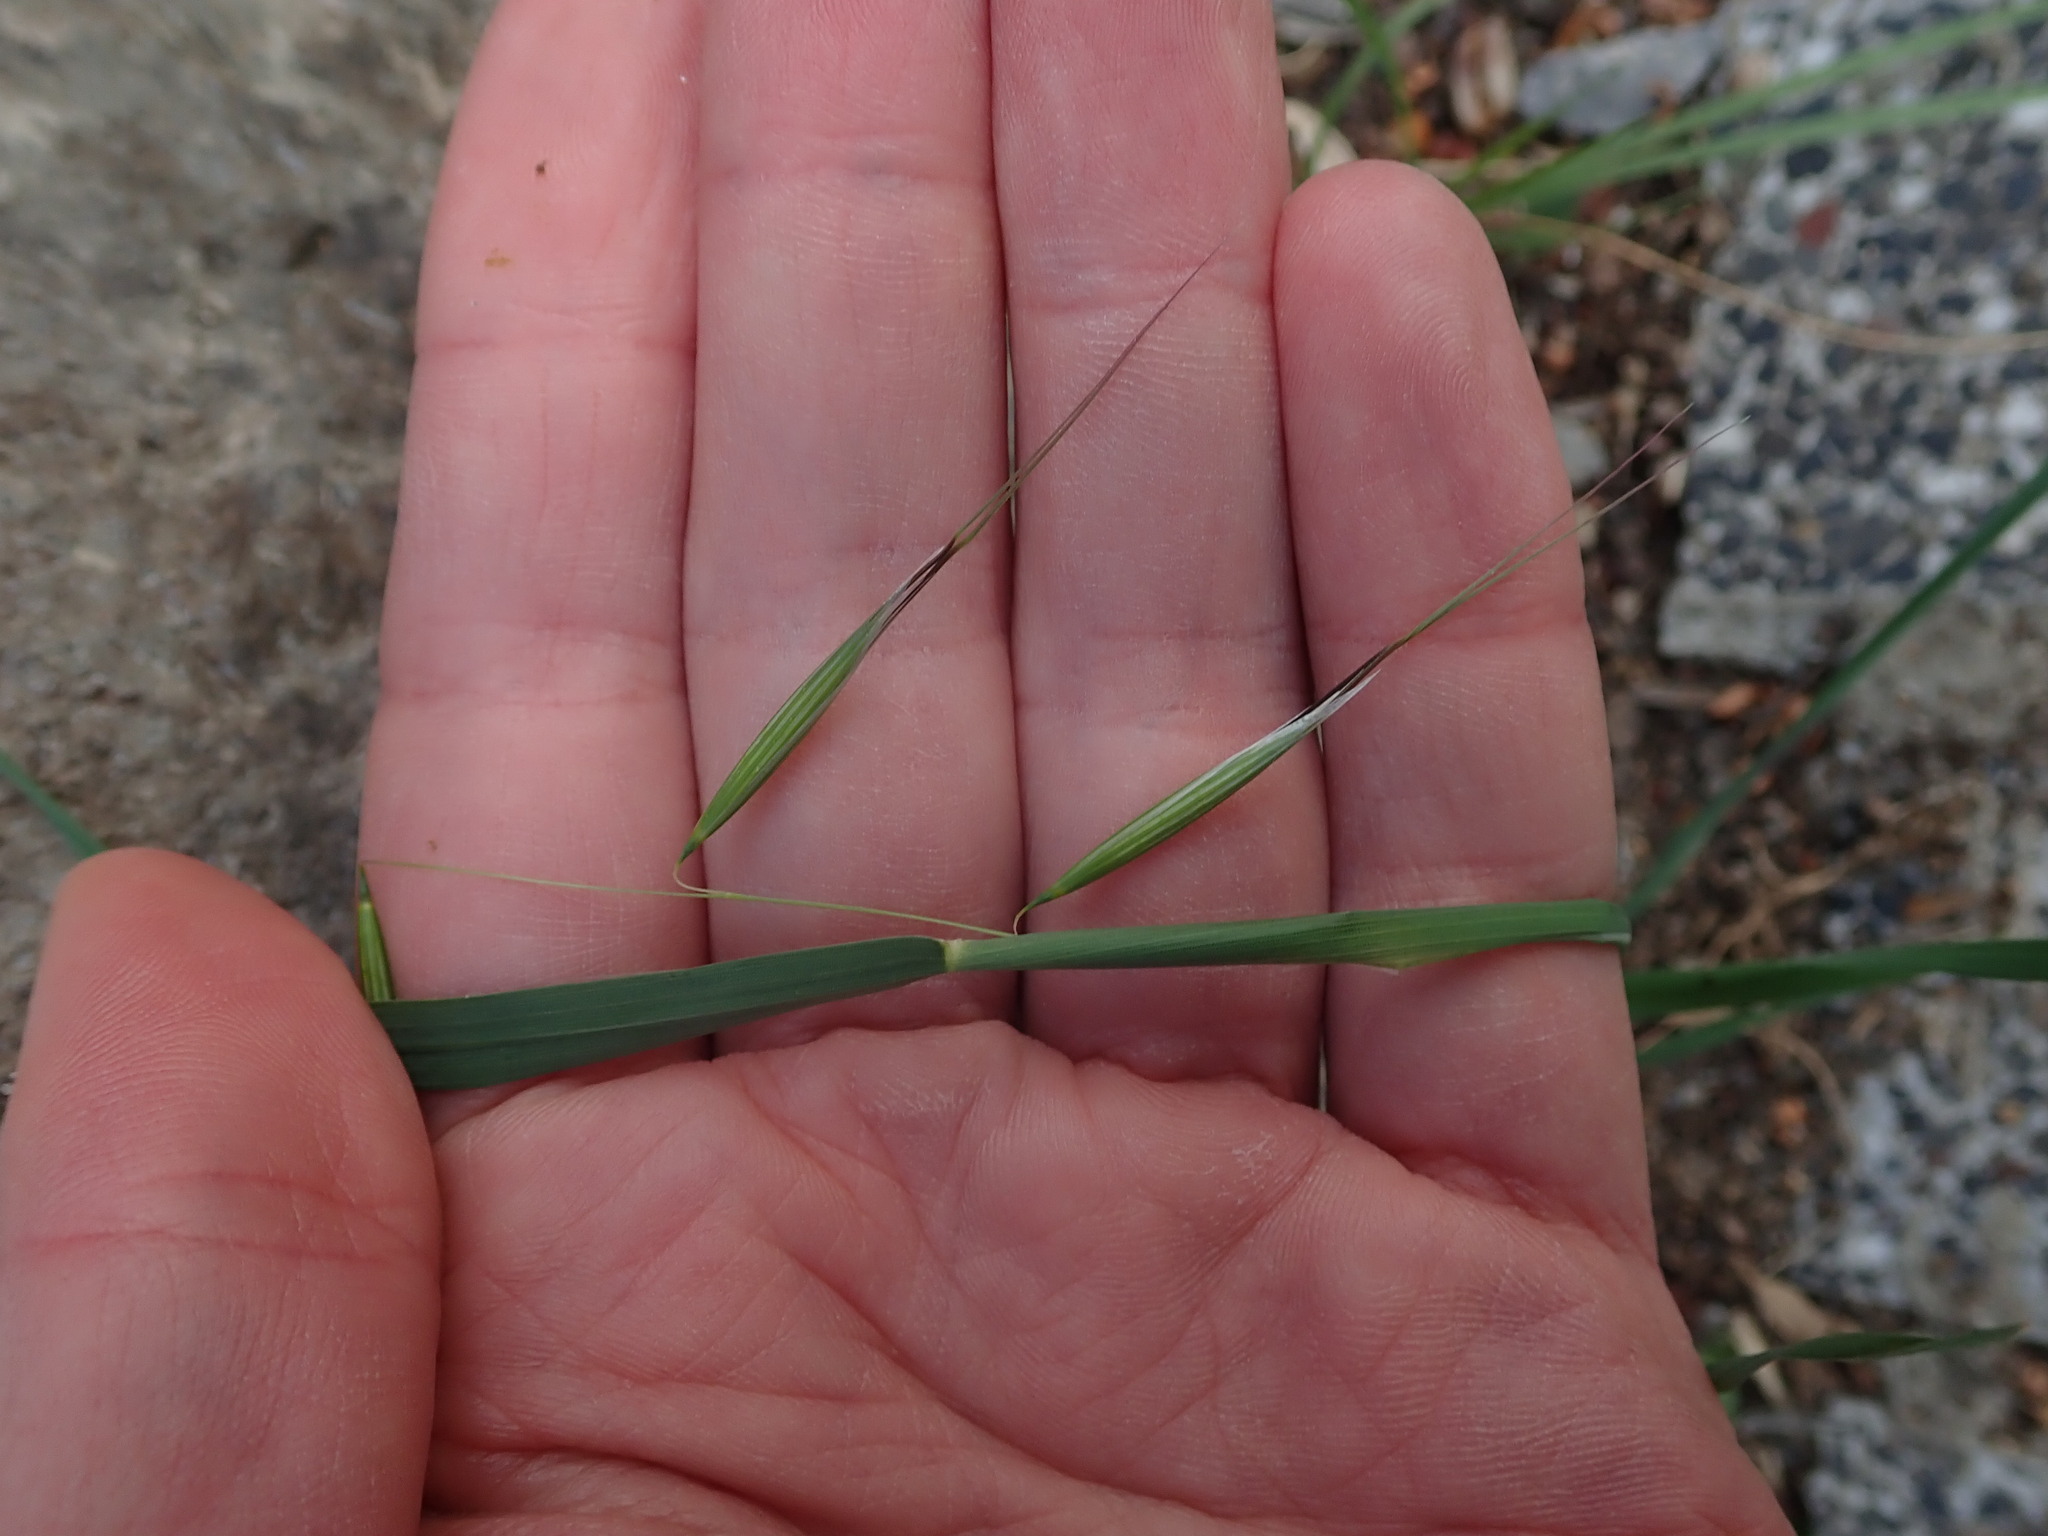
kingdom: Plantae
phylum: Tracheophyta
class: Liliopsida
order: Poales
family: Poaceae
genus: Avena
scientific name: Avena barbata
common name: Slender oat
